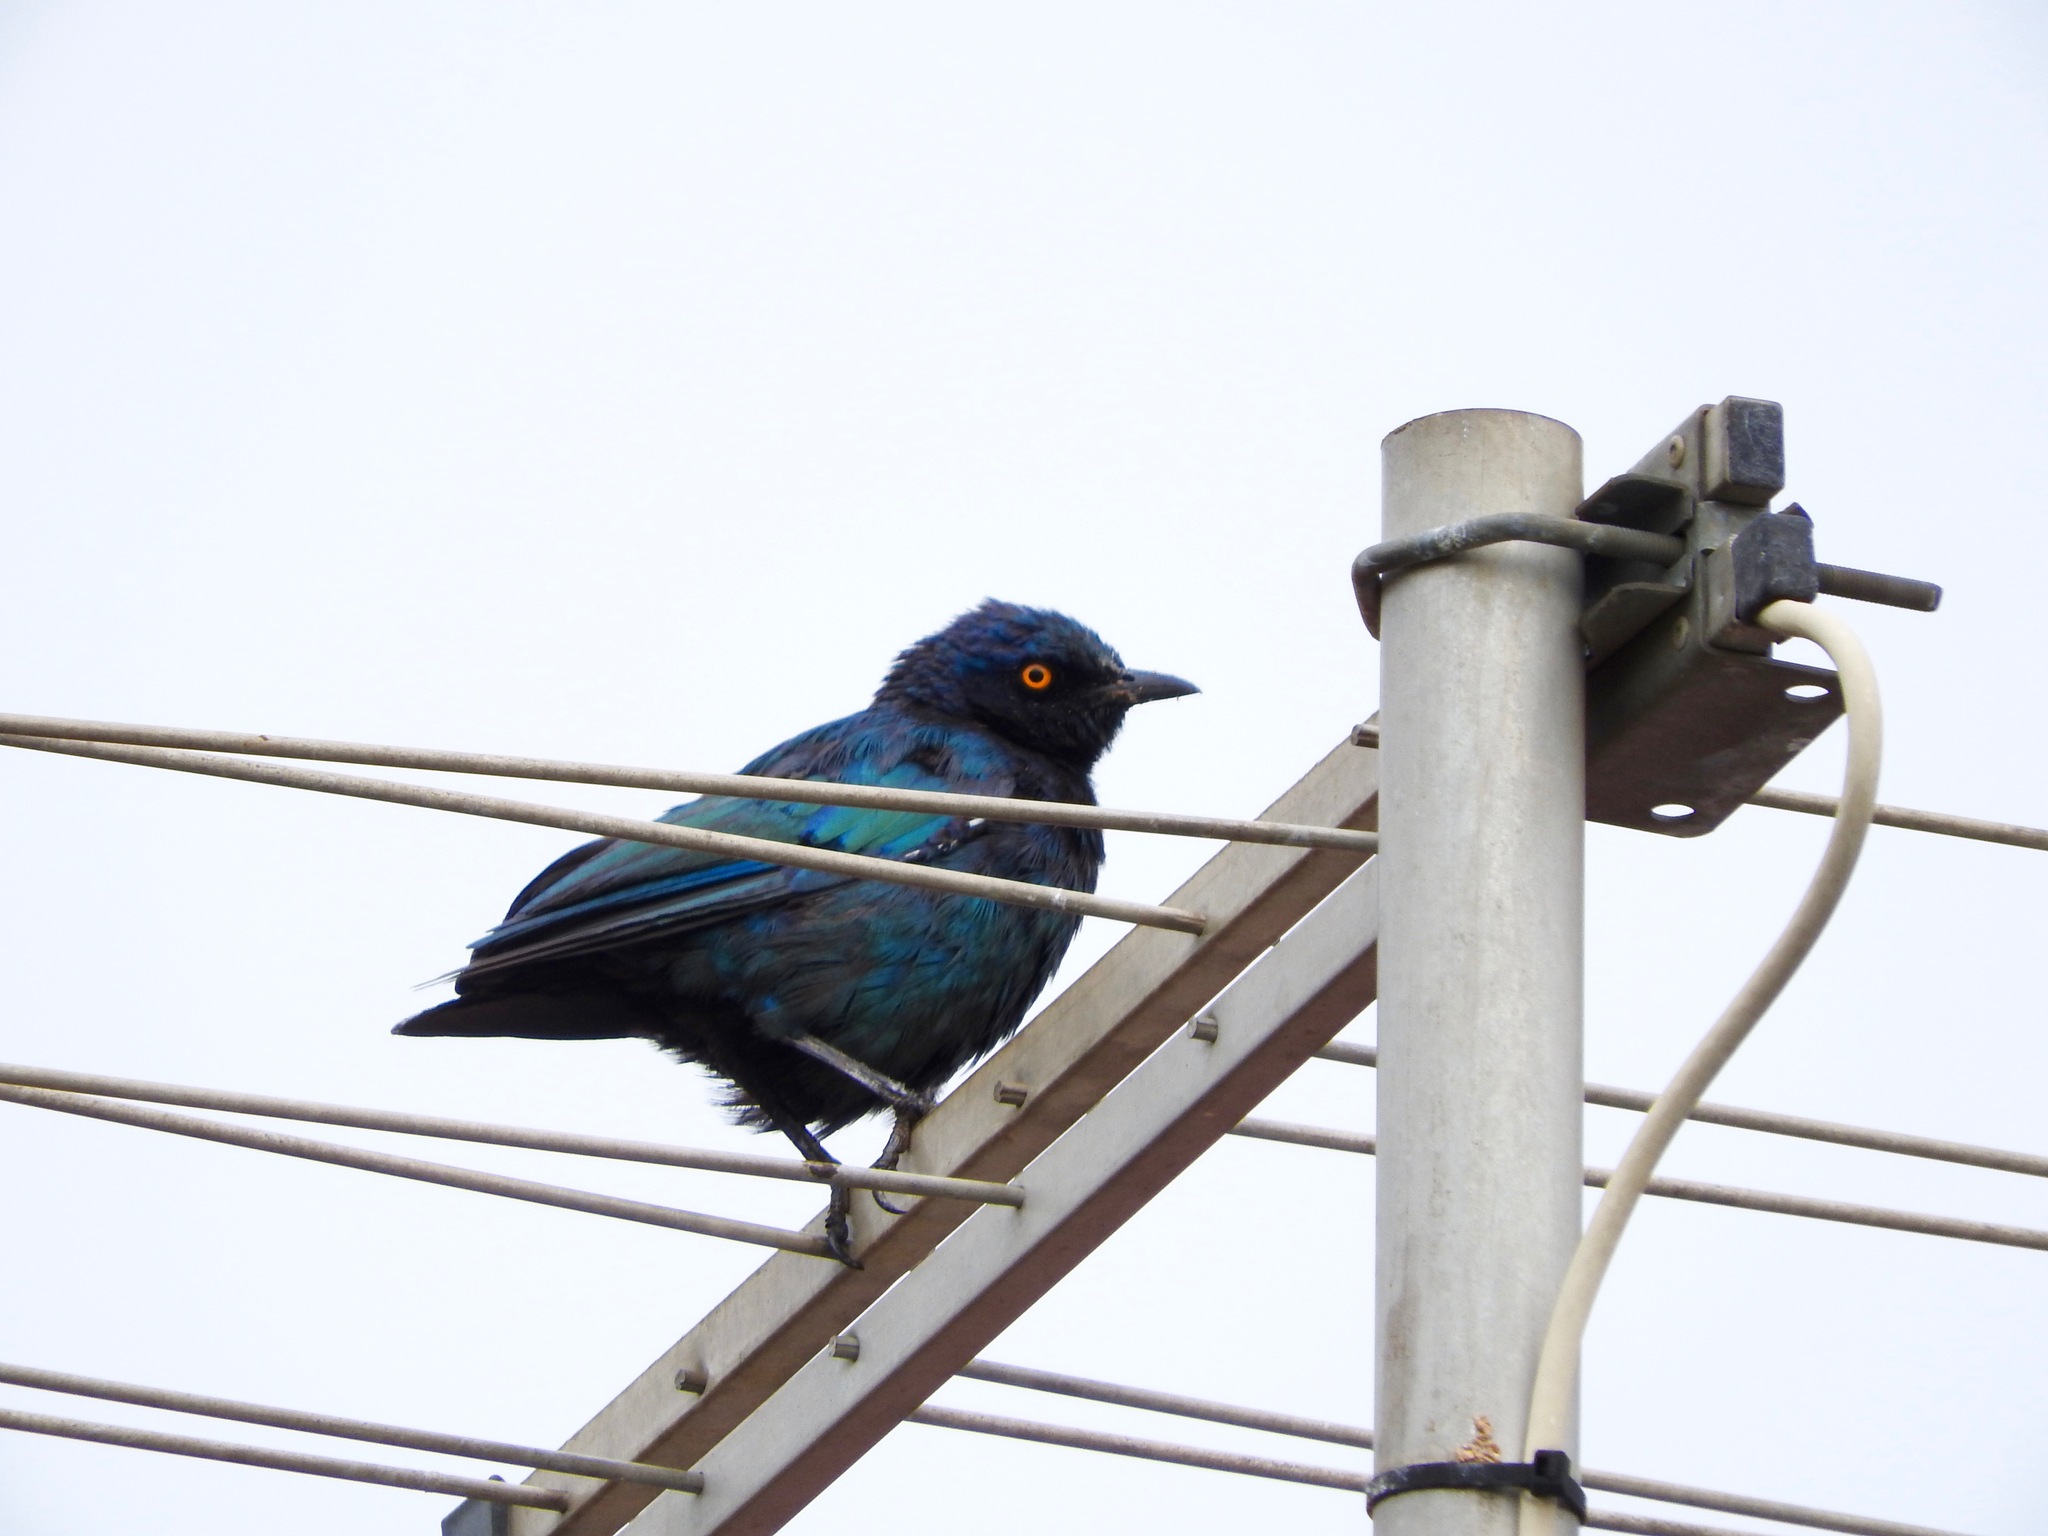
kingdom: Animalia
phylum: Chordata
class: Aves
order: Passeriformes
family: Sturnidae
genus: Lamprotornis
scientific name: Lamprotornis nitens
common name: Cape starling
